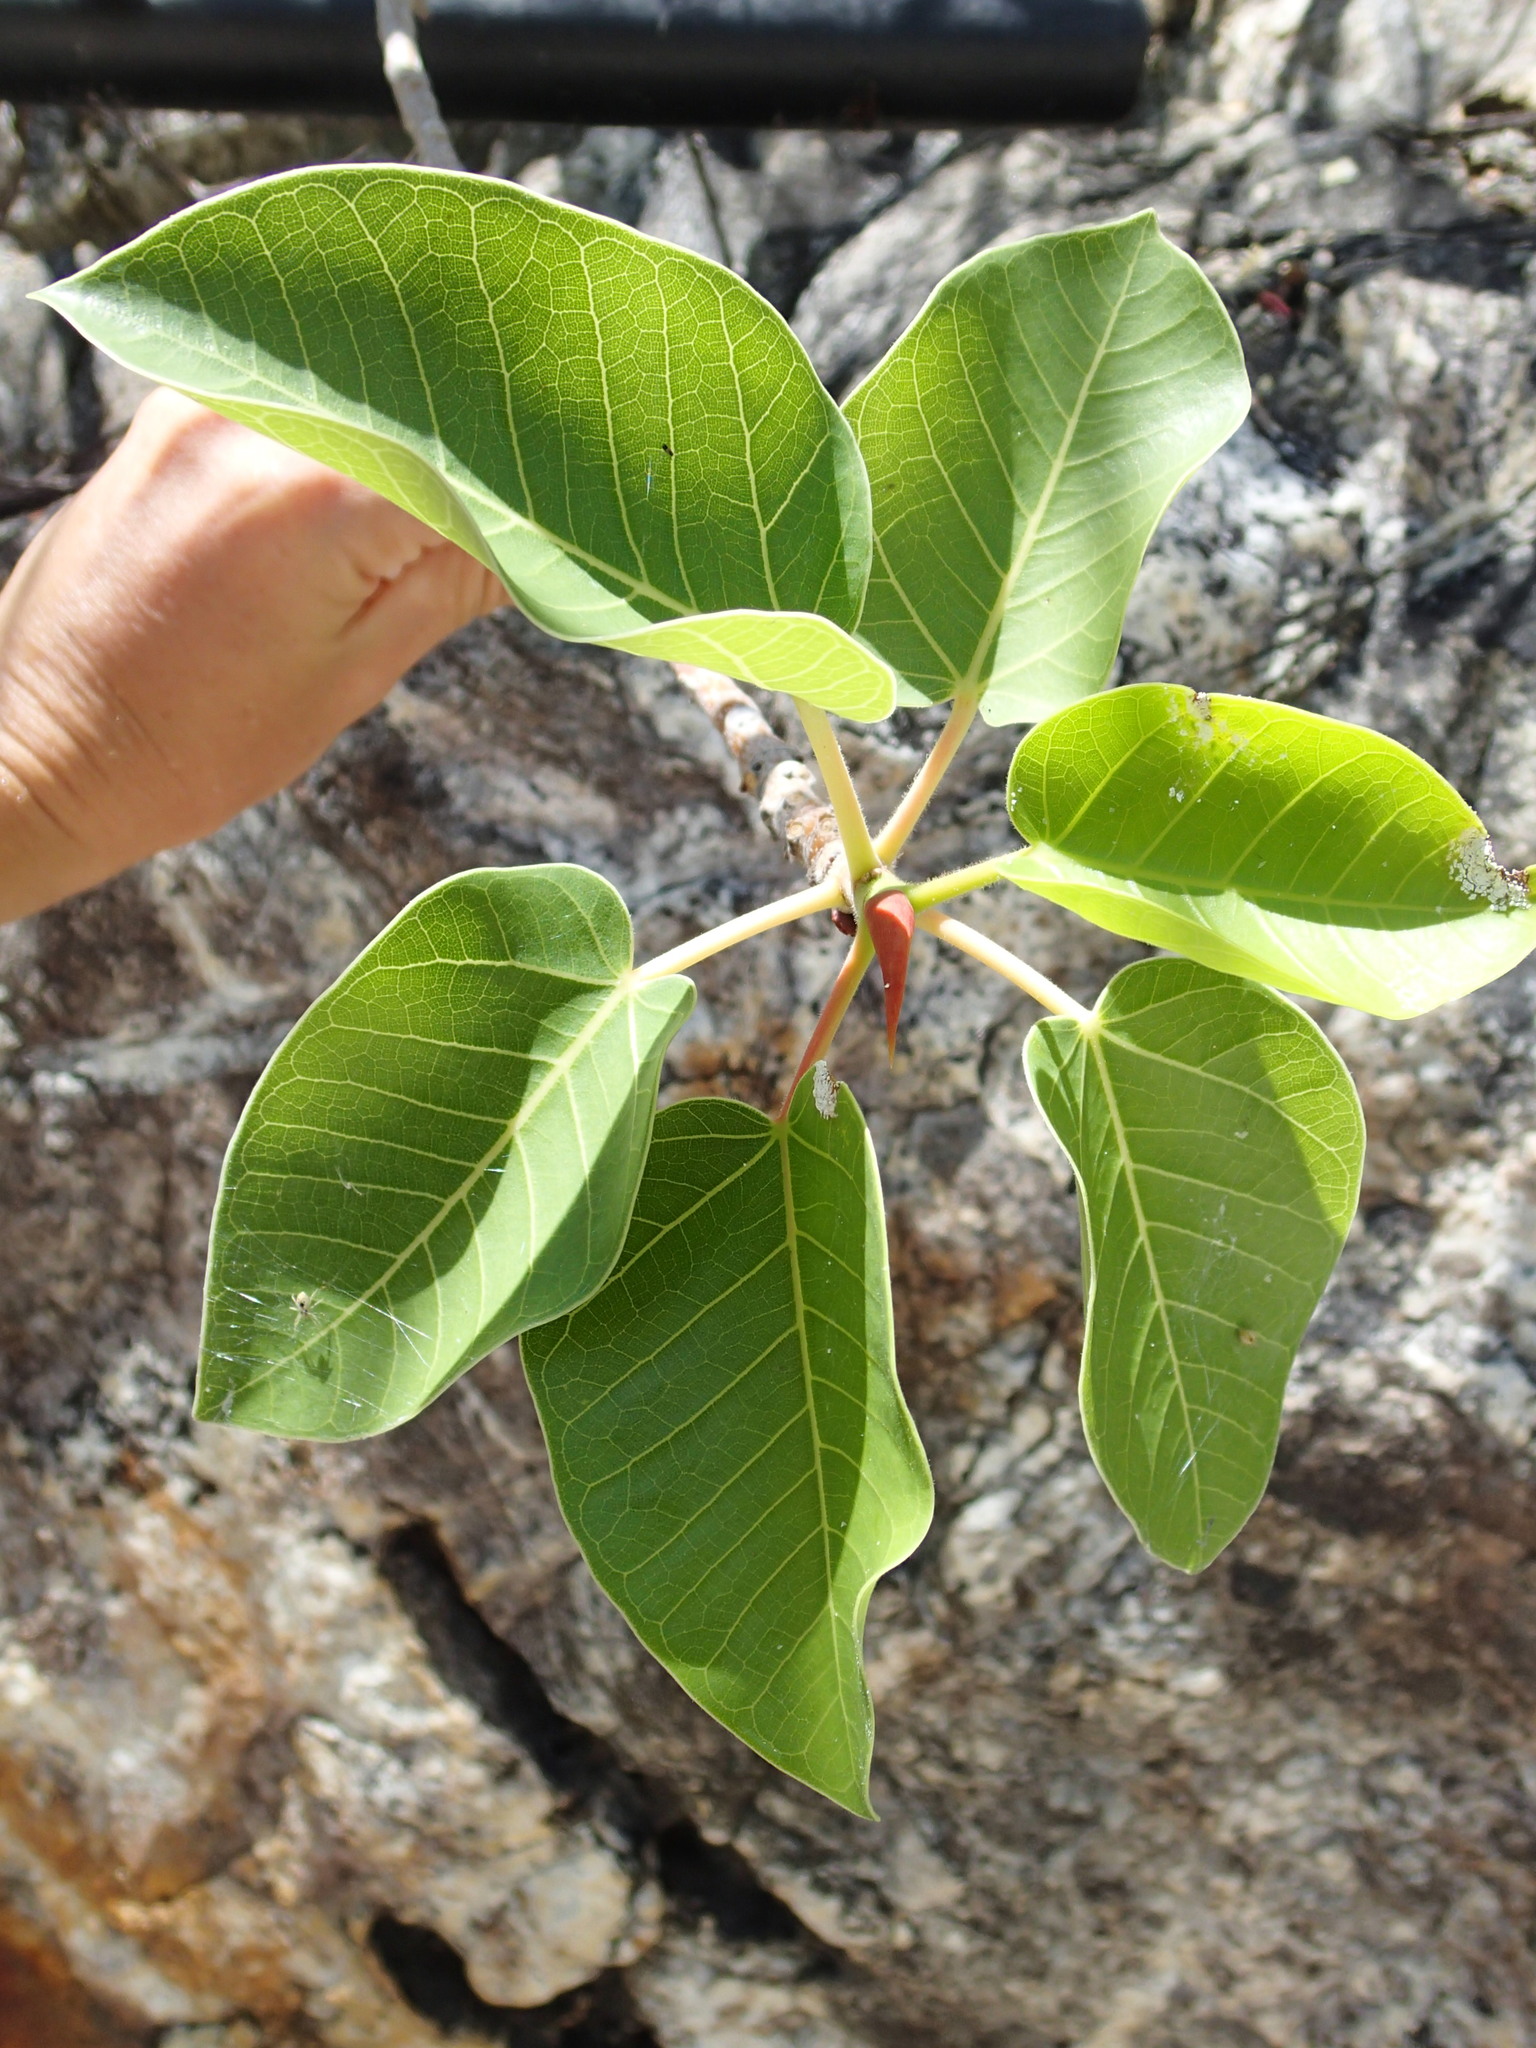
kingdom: Plantae
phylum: Tracheophyta
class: Magnoliopsida
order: Rosales
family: Moraceae
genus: Ficus
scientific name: Ficus petiolaris
